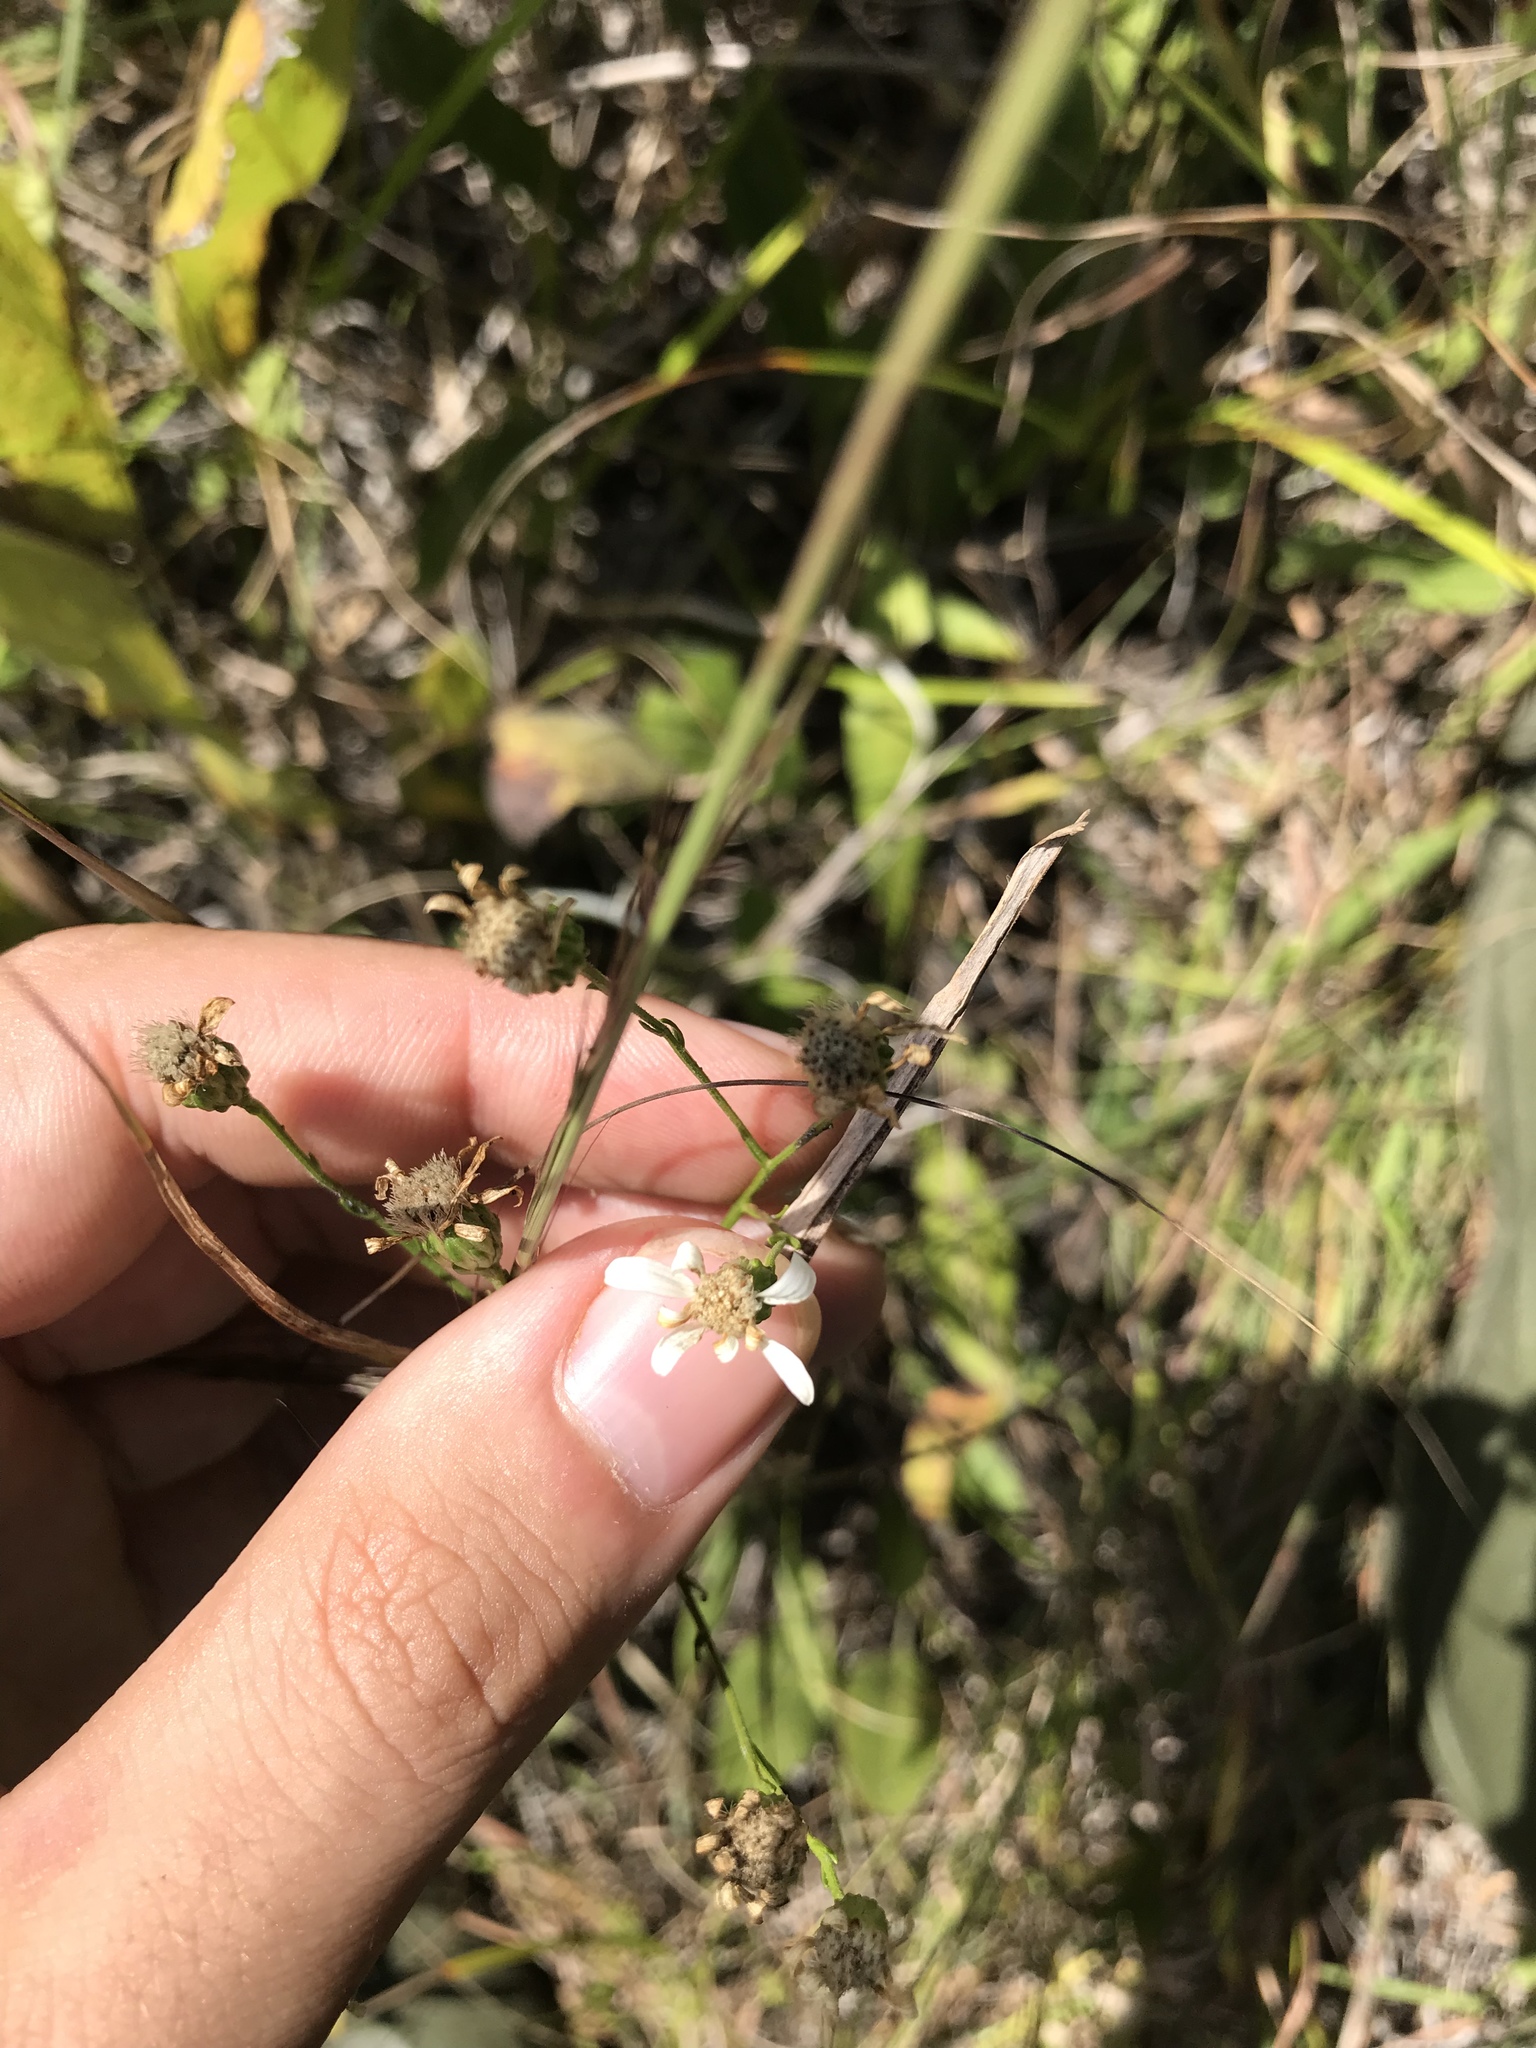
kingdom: Plantae
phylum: Tracheophyta
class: Magnoliopsida
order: Asterales
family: Asteraceae
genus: Solidago
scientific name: Solidago ptarmicoides
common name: White flat-top goldenrod
